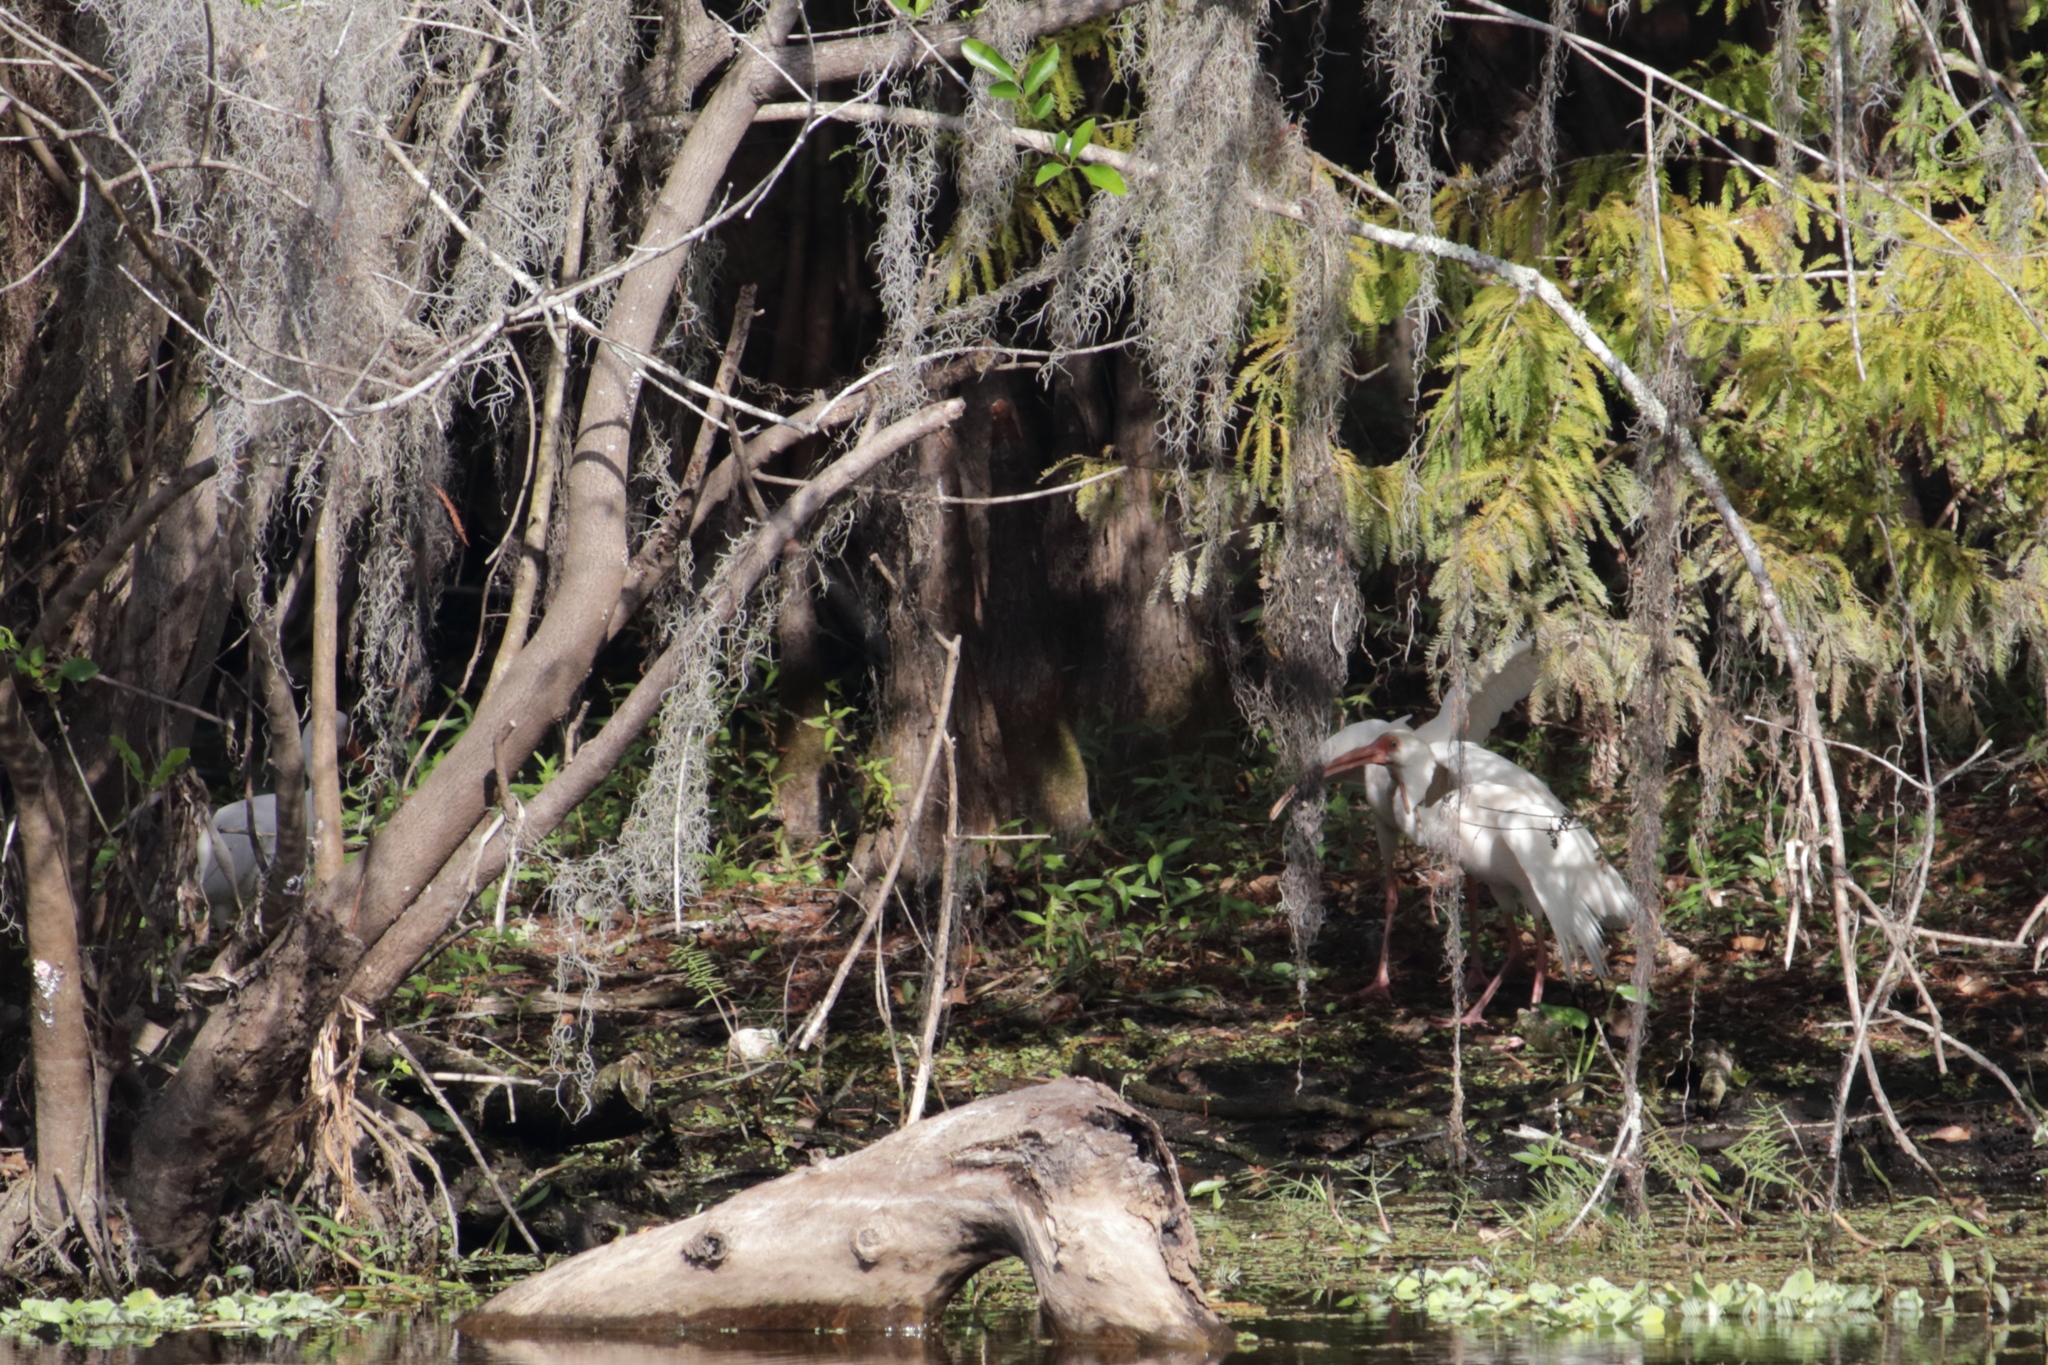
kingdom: Animalia
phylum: Chordata
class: Aves
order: Pelecaniformes
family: Threskiornithidae
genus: Eudocimus
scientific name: Eudocimus albus
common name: White ibis
